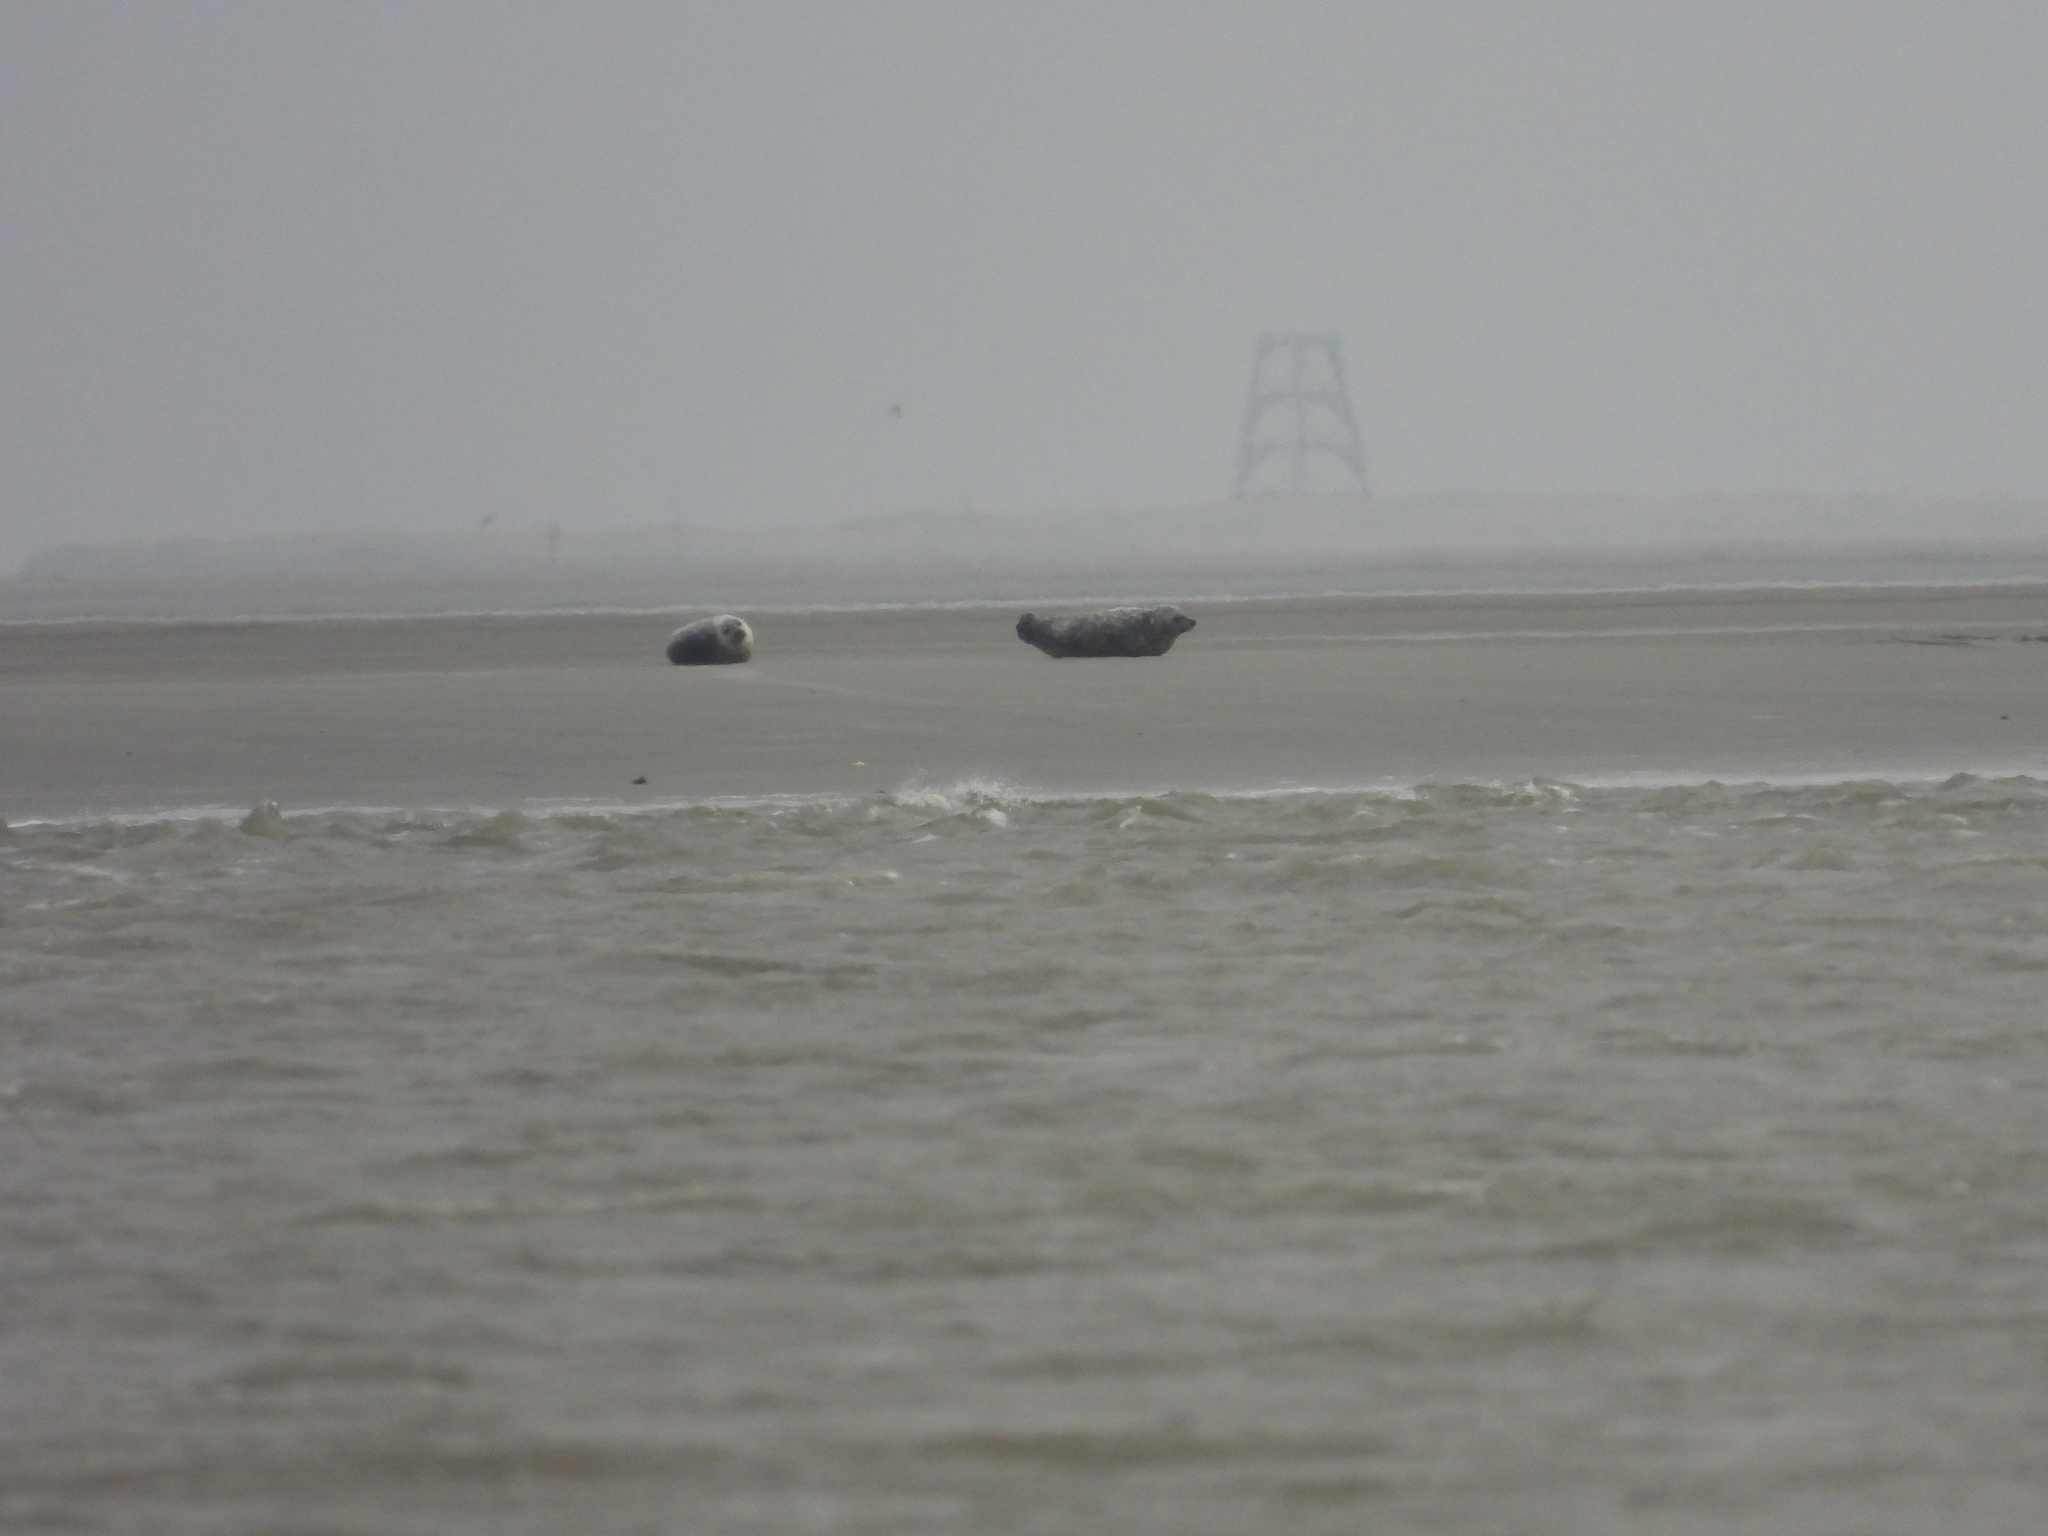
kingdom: Animalia
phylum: Chordata
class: Mammalia
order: Carnivora
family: Phocidae
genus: Phoca
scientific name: Phoca vitulina
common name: Harbor seal
